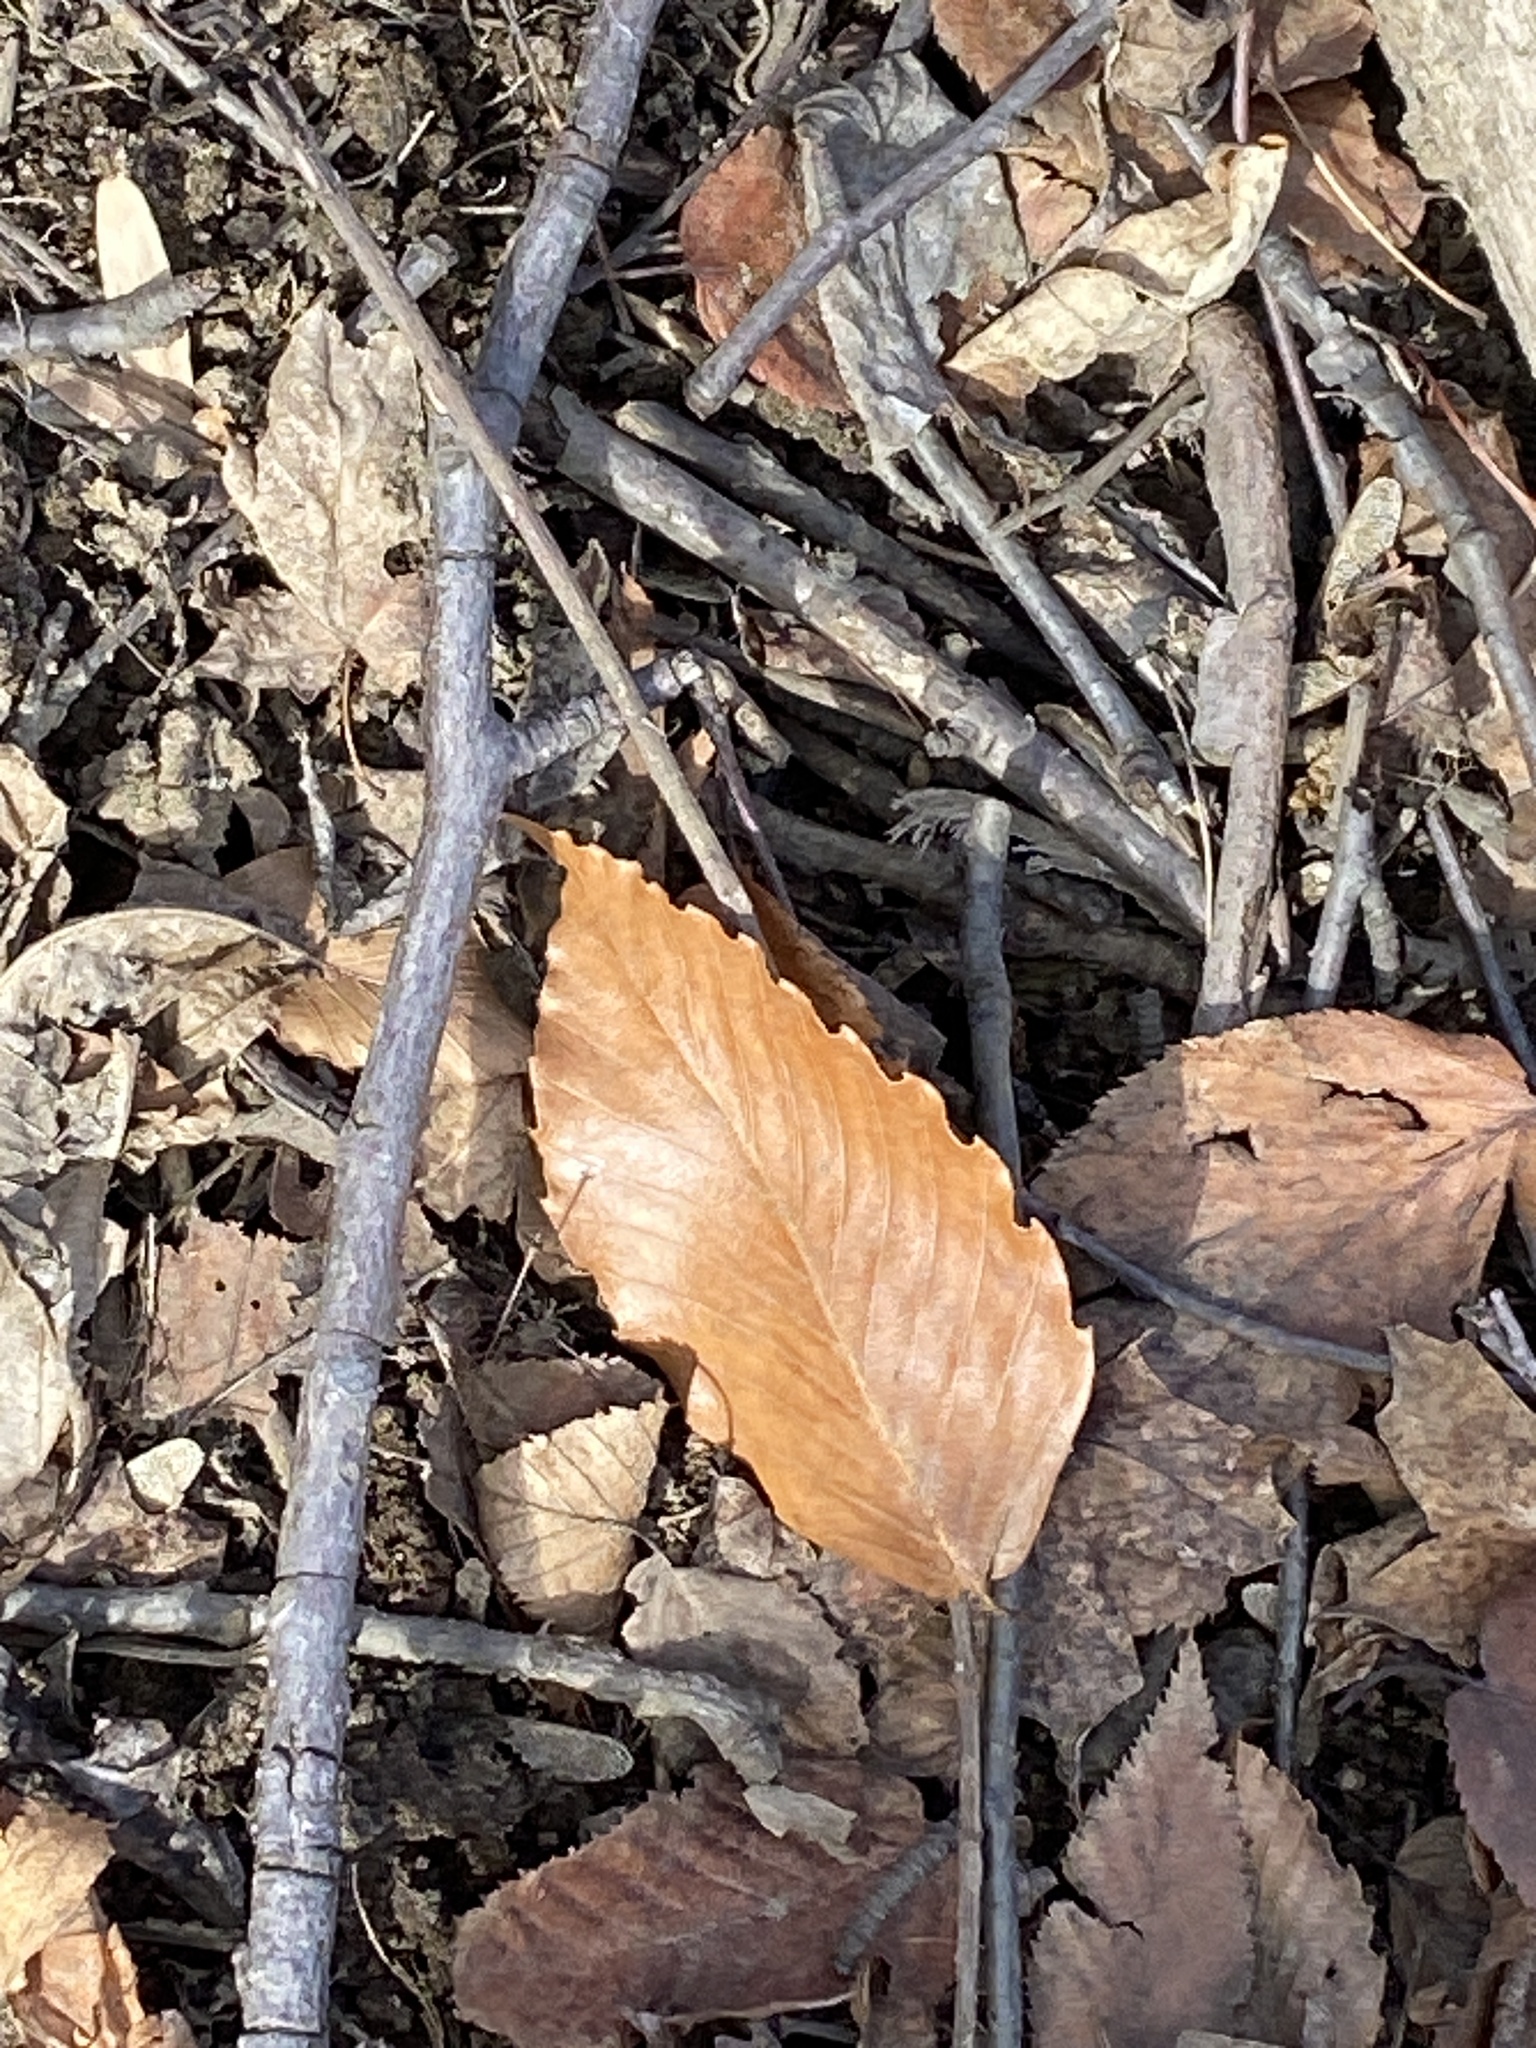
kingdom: Plantae
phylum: Tracheophyta
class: Magnoliopsida
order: Fagales
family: Fagaceae
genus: Fagus
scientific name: Fagus grandifolia
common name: American beech
